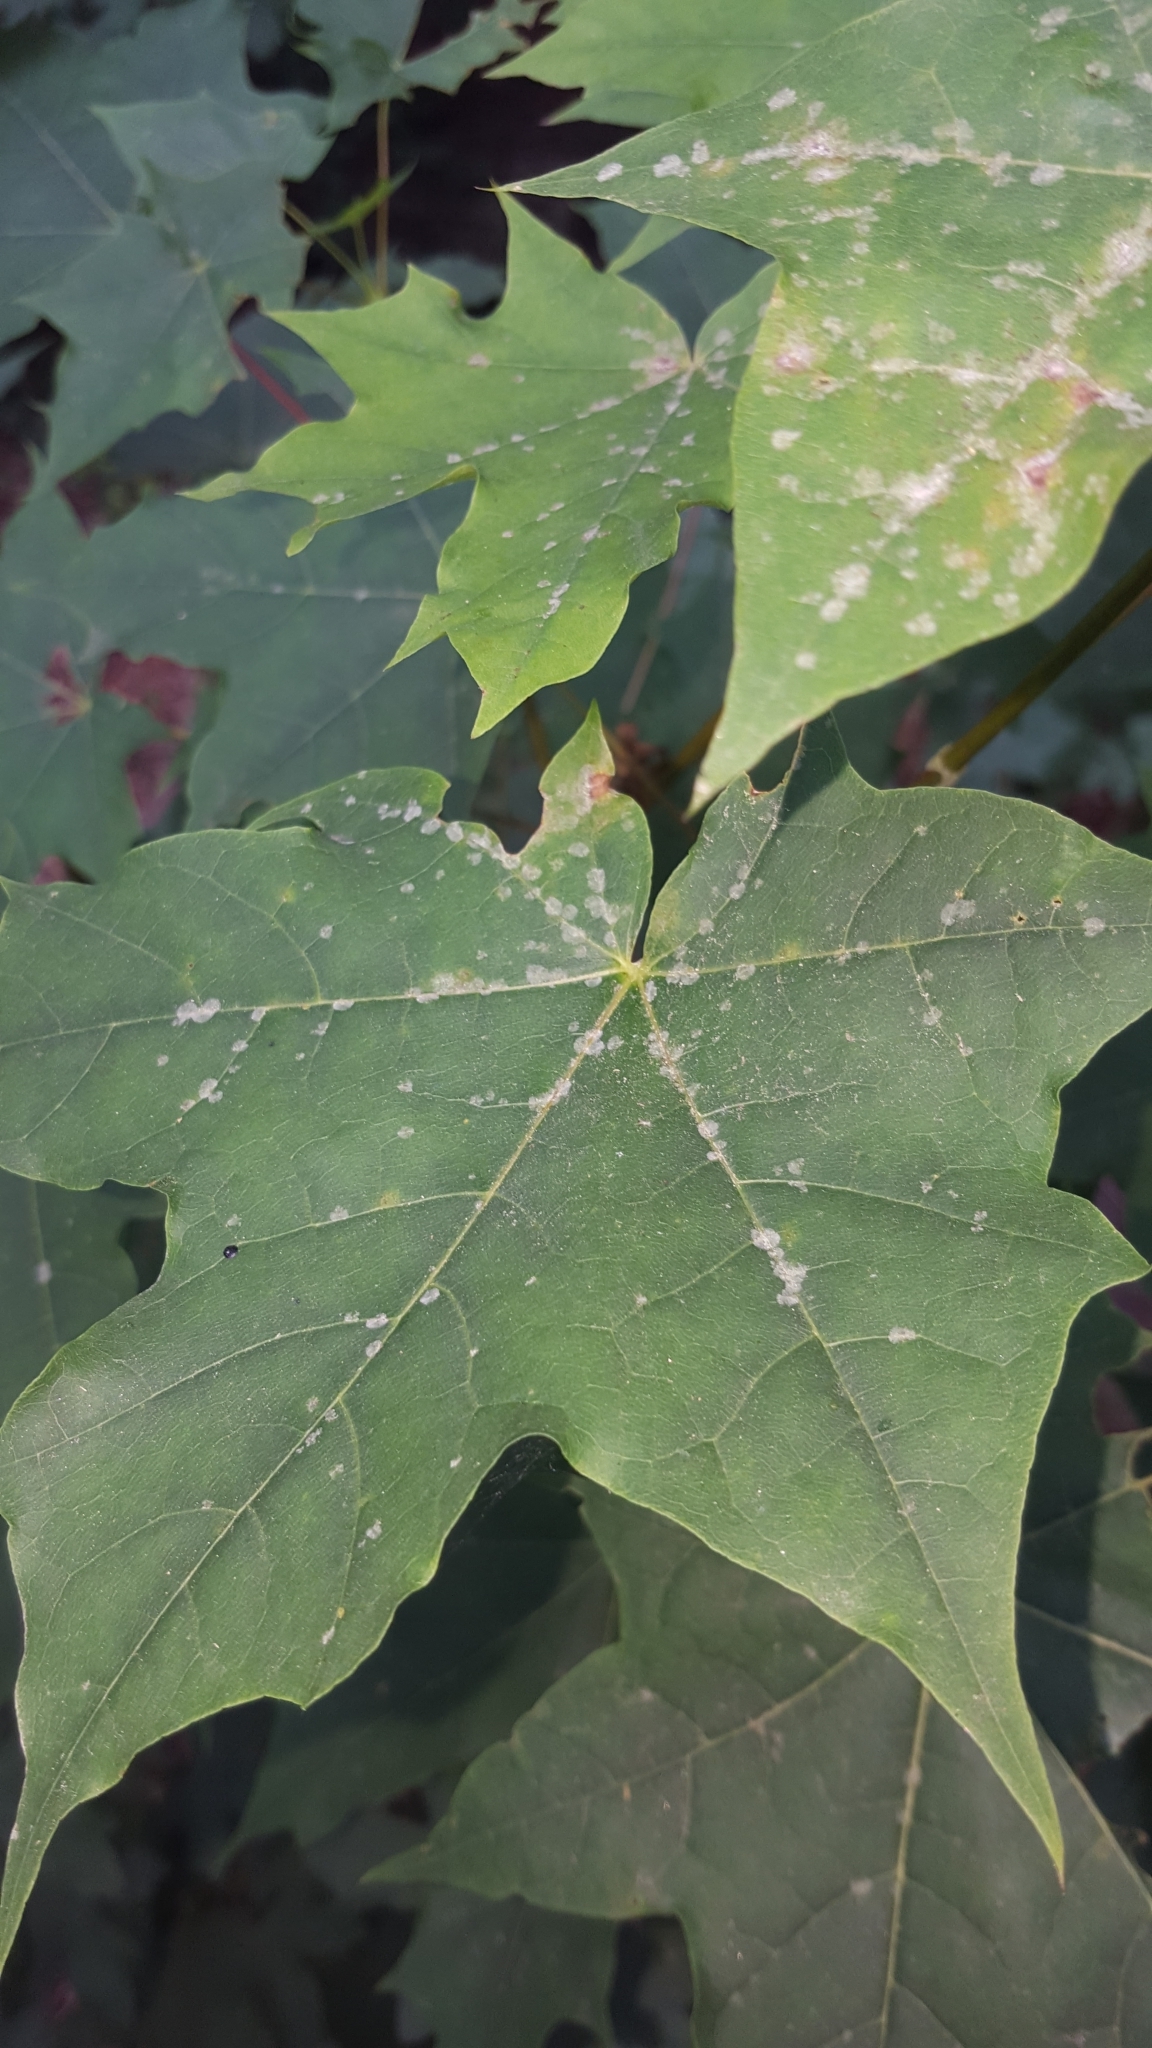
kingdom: Fungi
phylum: Ascomycota
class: Leotiomycetes
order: Helotiales
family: Erysiphaceae
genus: Sawadaea
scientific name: Sawadaea tulasnei
